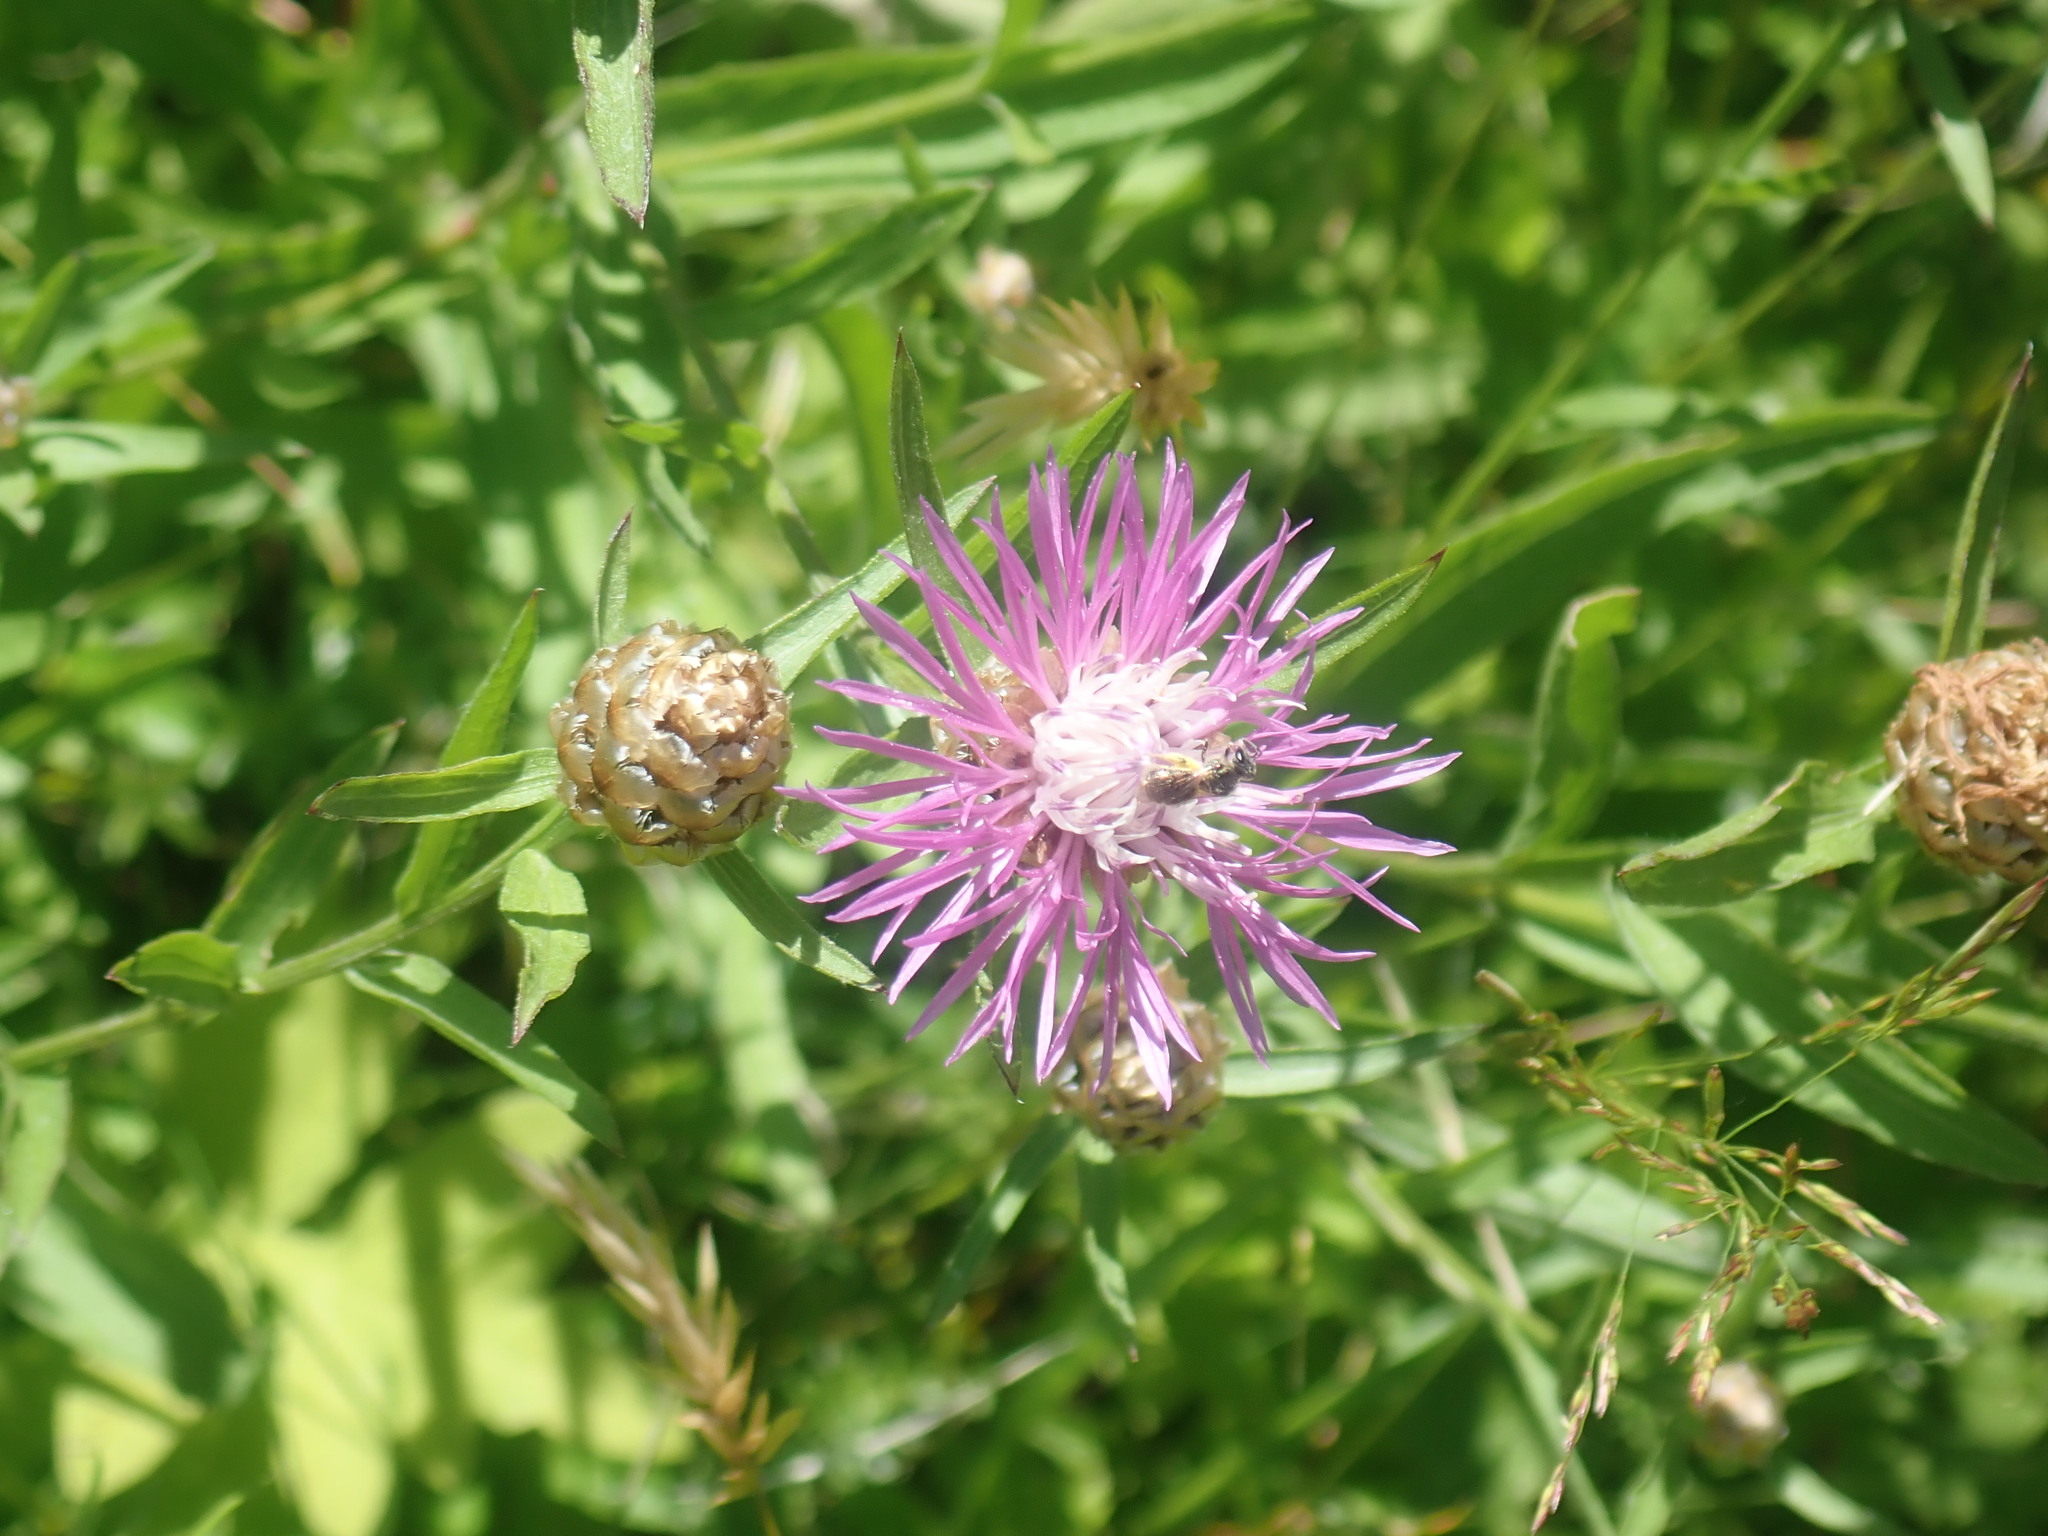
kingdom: Plantae
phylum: Tracheophyta
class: Magnoliopsida
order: Asterales
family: Asteraceae
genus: Centaurea
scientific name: Centaurea jacea
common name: Brown knapweed
